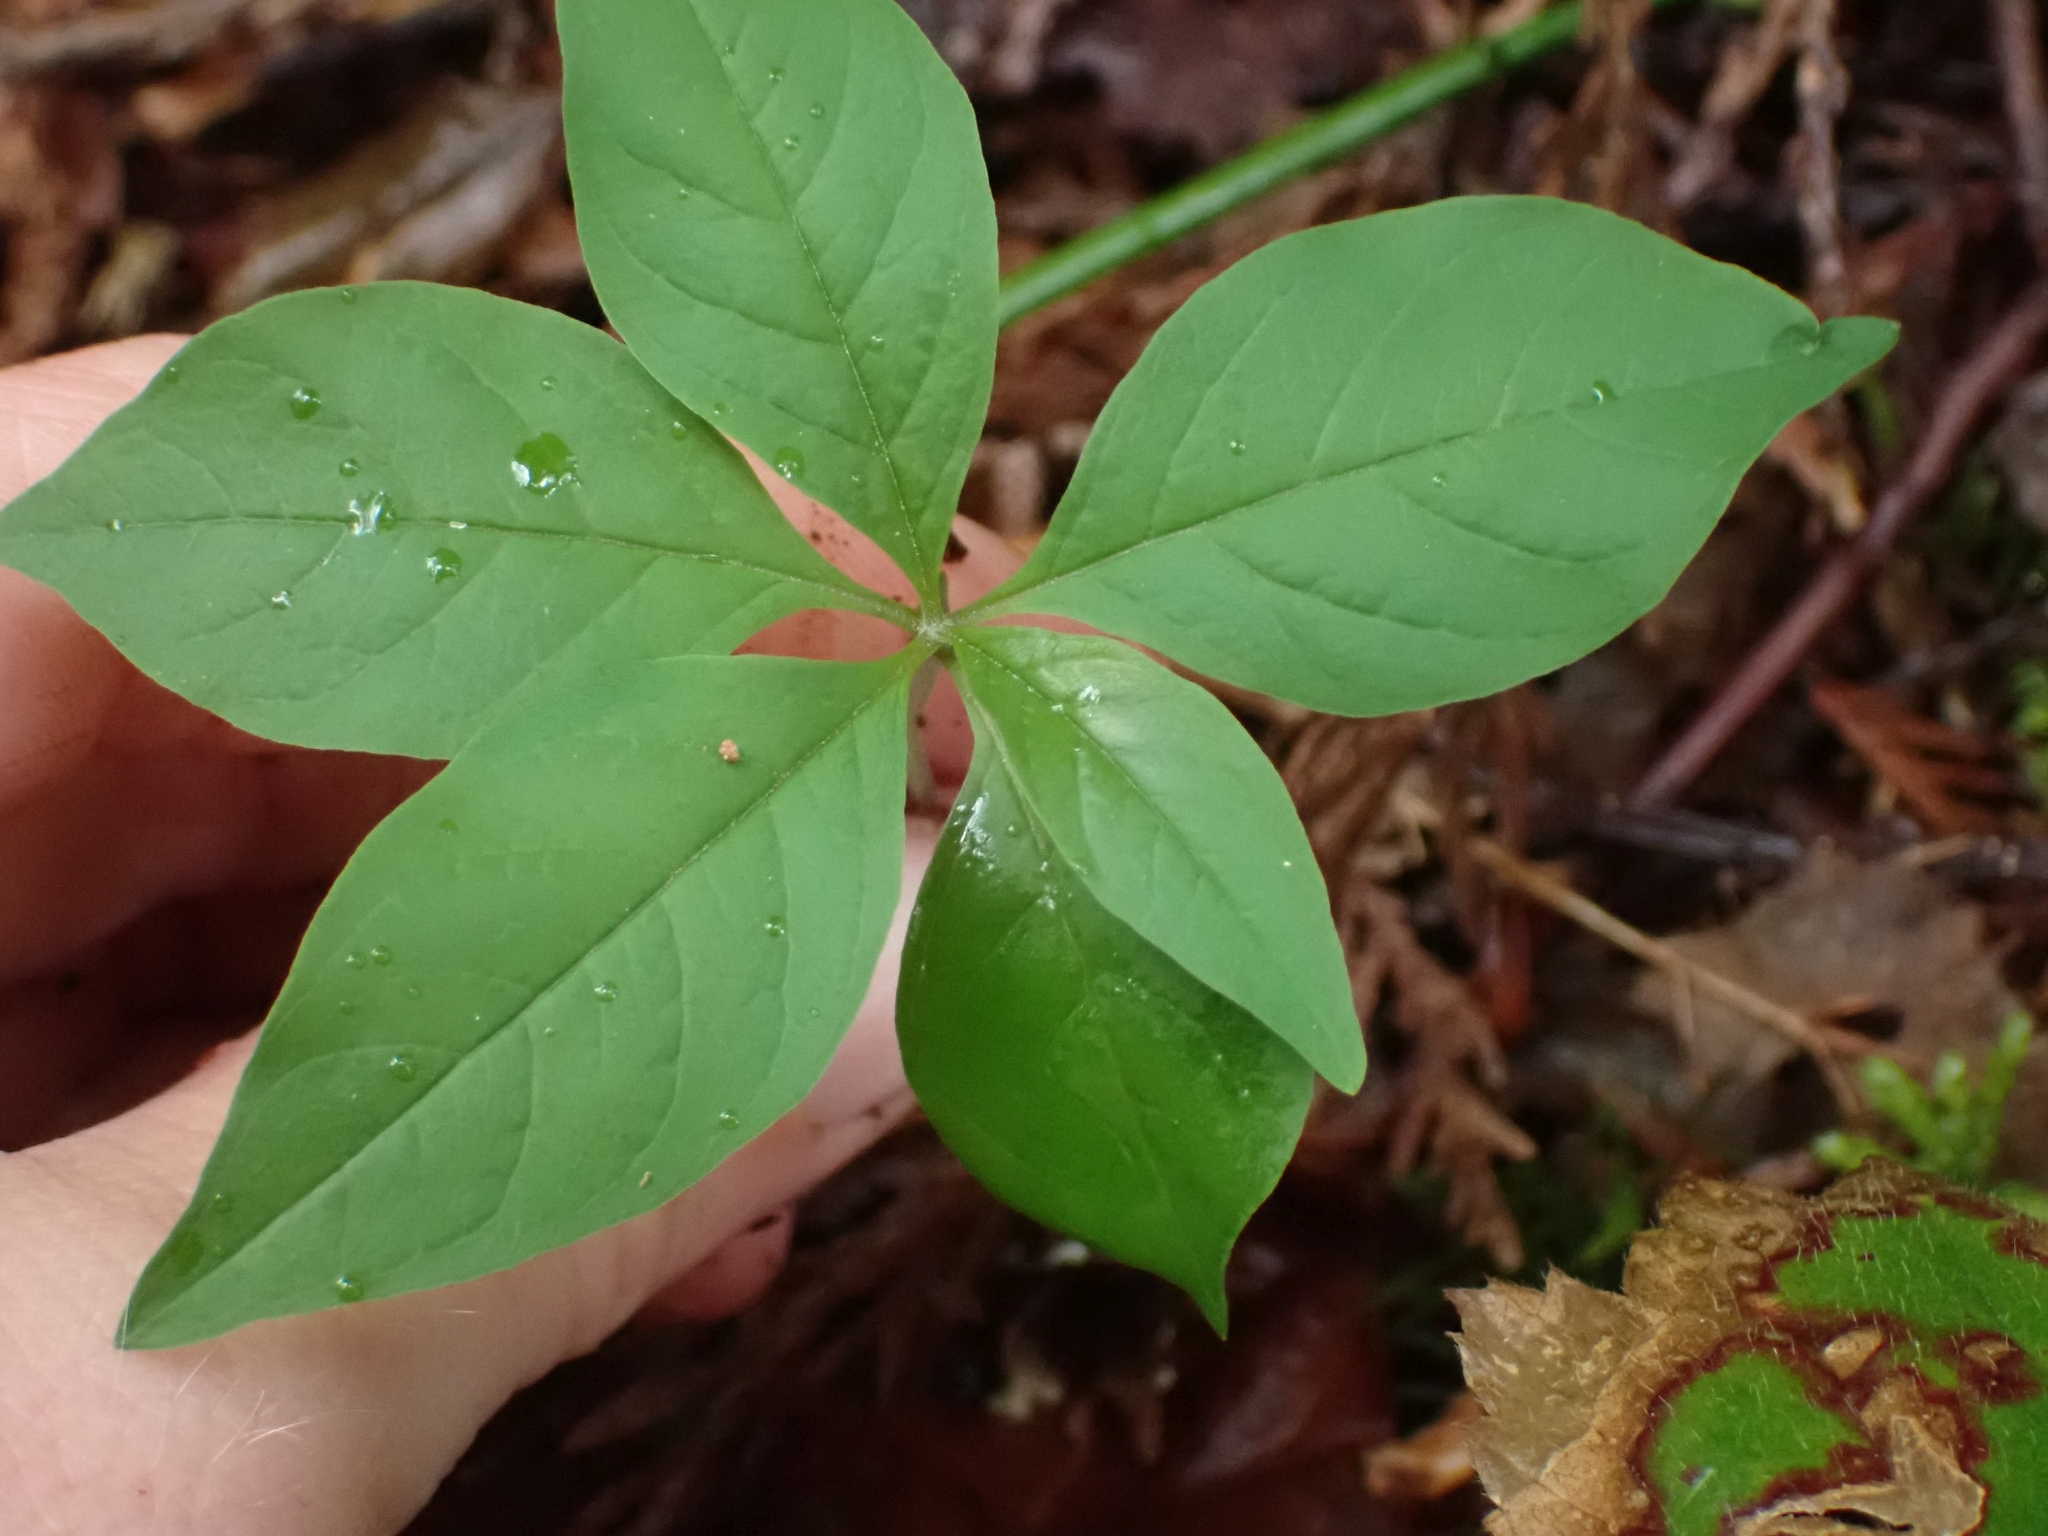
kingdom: Plantae
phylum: Tracheophyta
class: Magnoliopsida
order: Ericales
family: Primulaceae
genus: Lysimachia
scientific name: Lysimachia latifolia
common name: Pacific starflower
